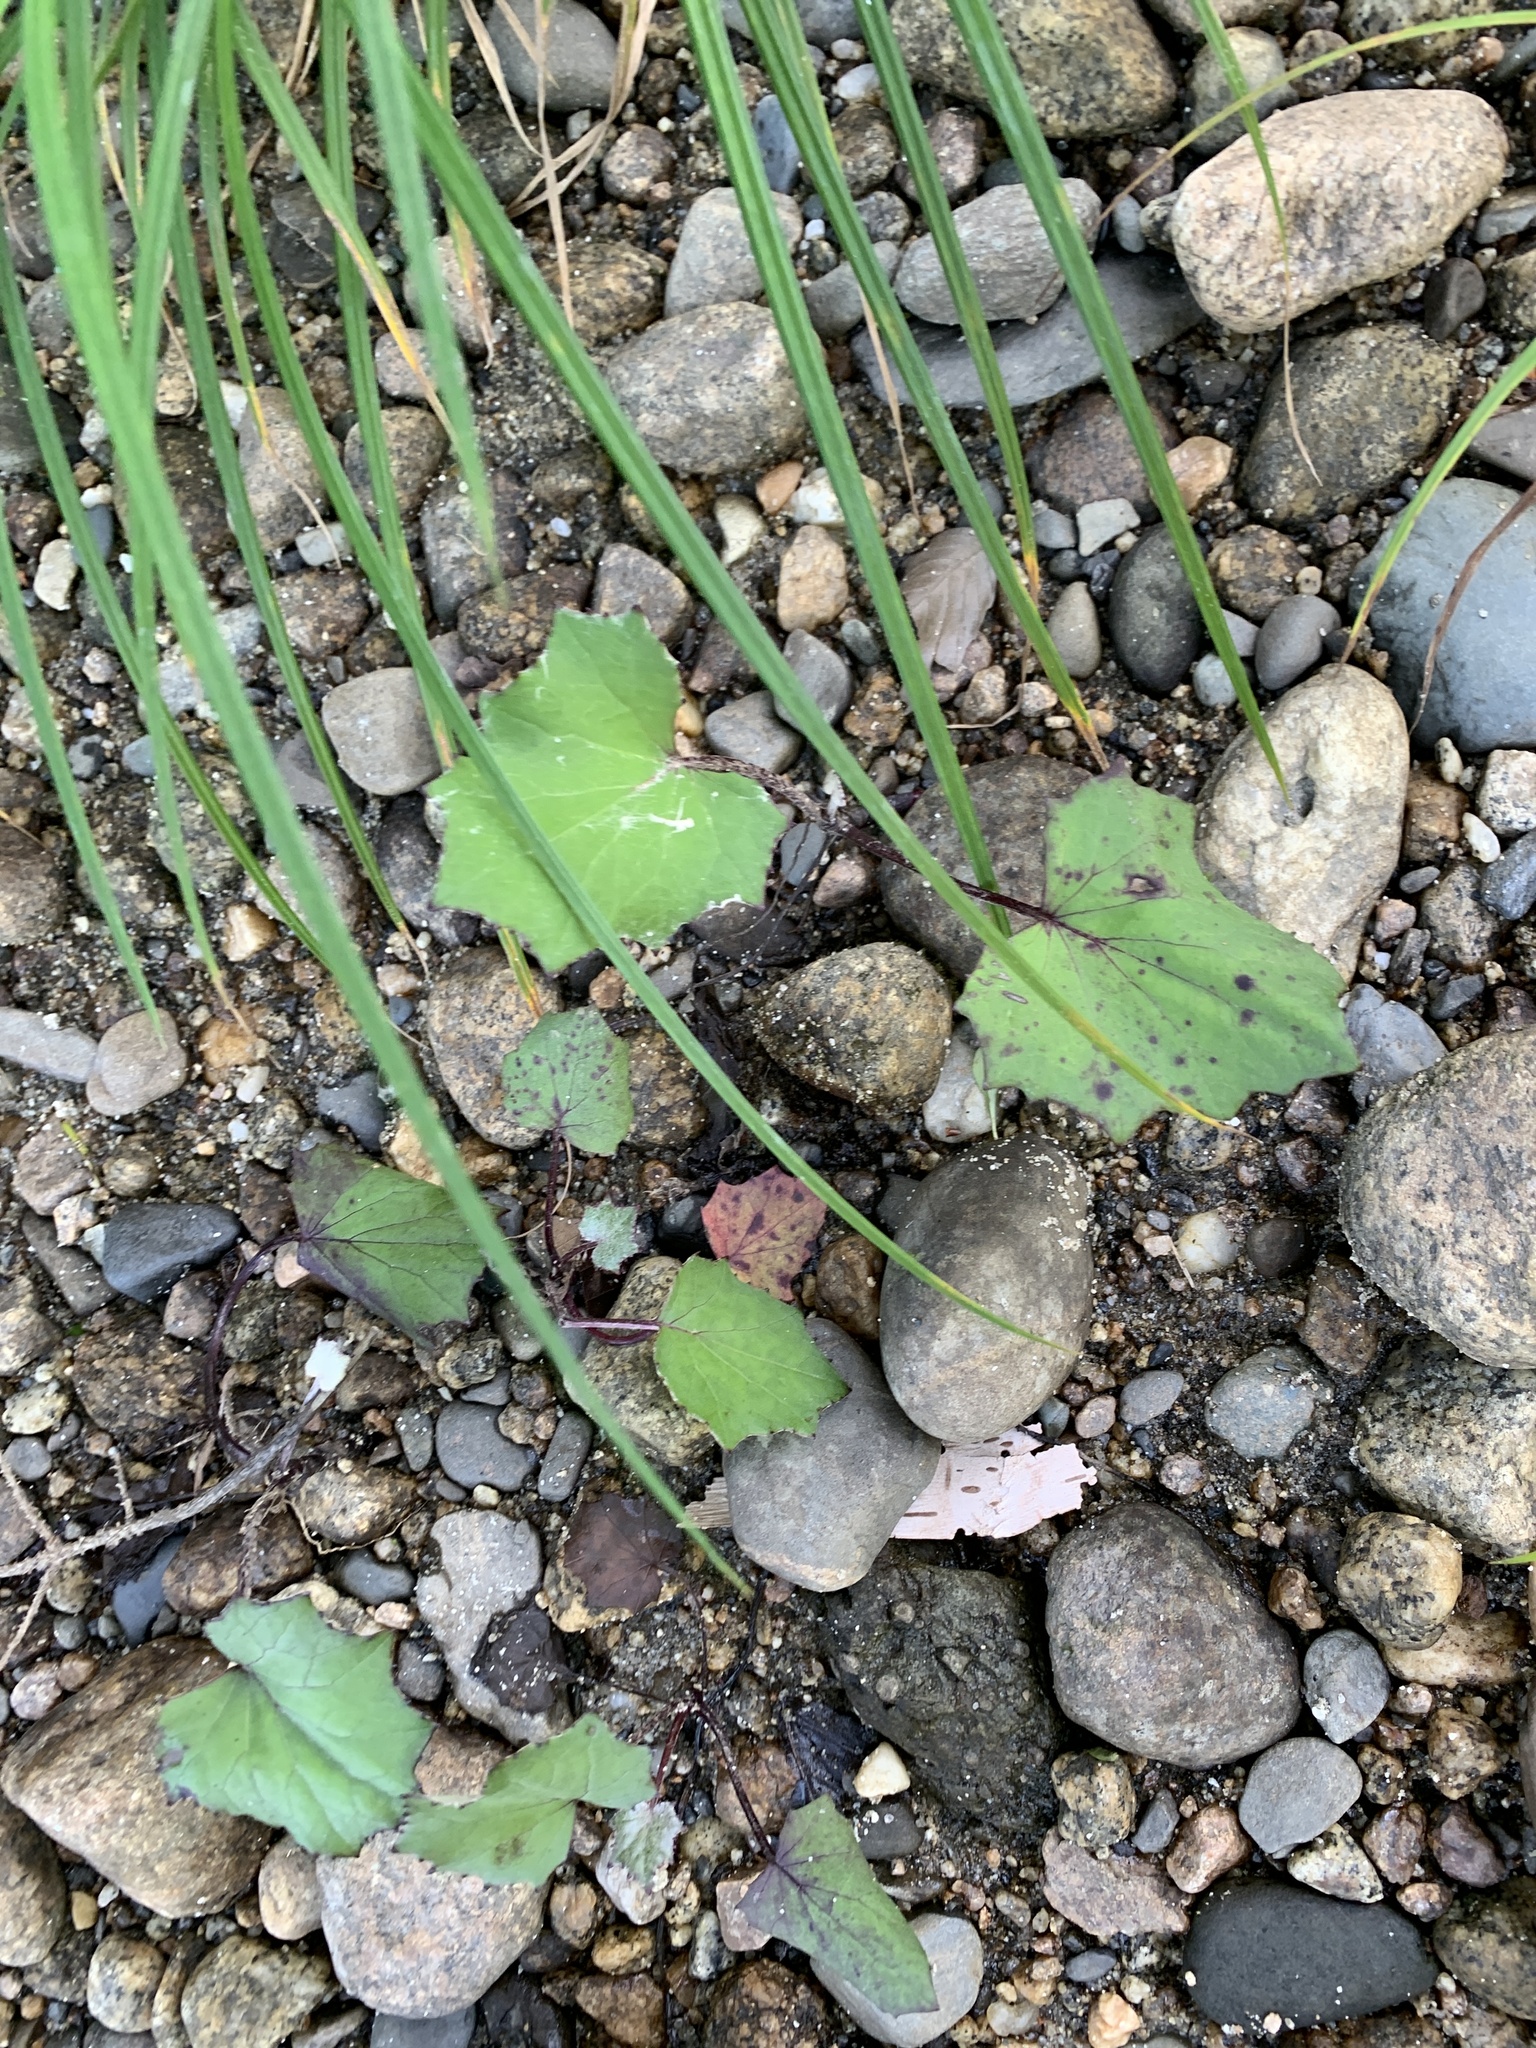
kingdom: Plantae
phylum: Tracheophyta
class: Magnoliopsida
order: Asterales
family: Asteraceae
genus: Tussilago
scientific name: Tussilago farfara
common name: Coltsfoot
